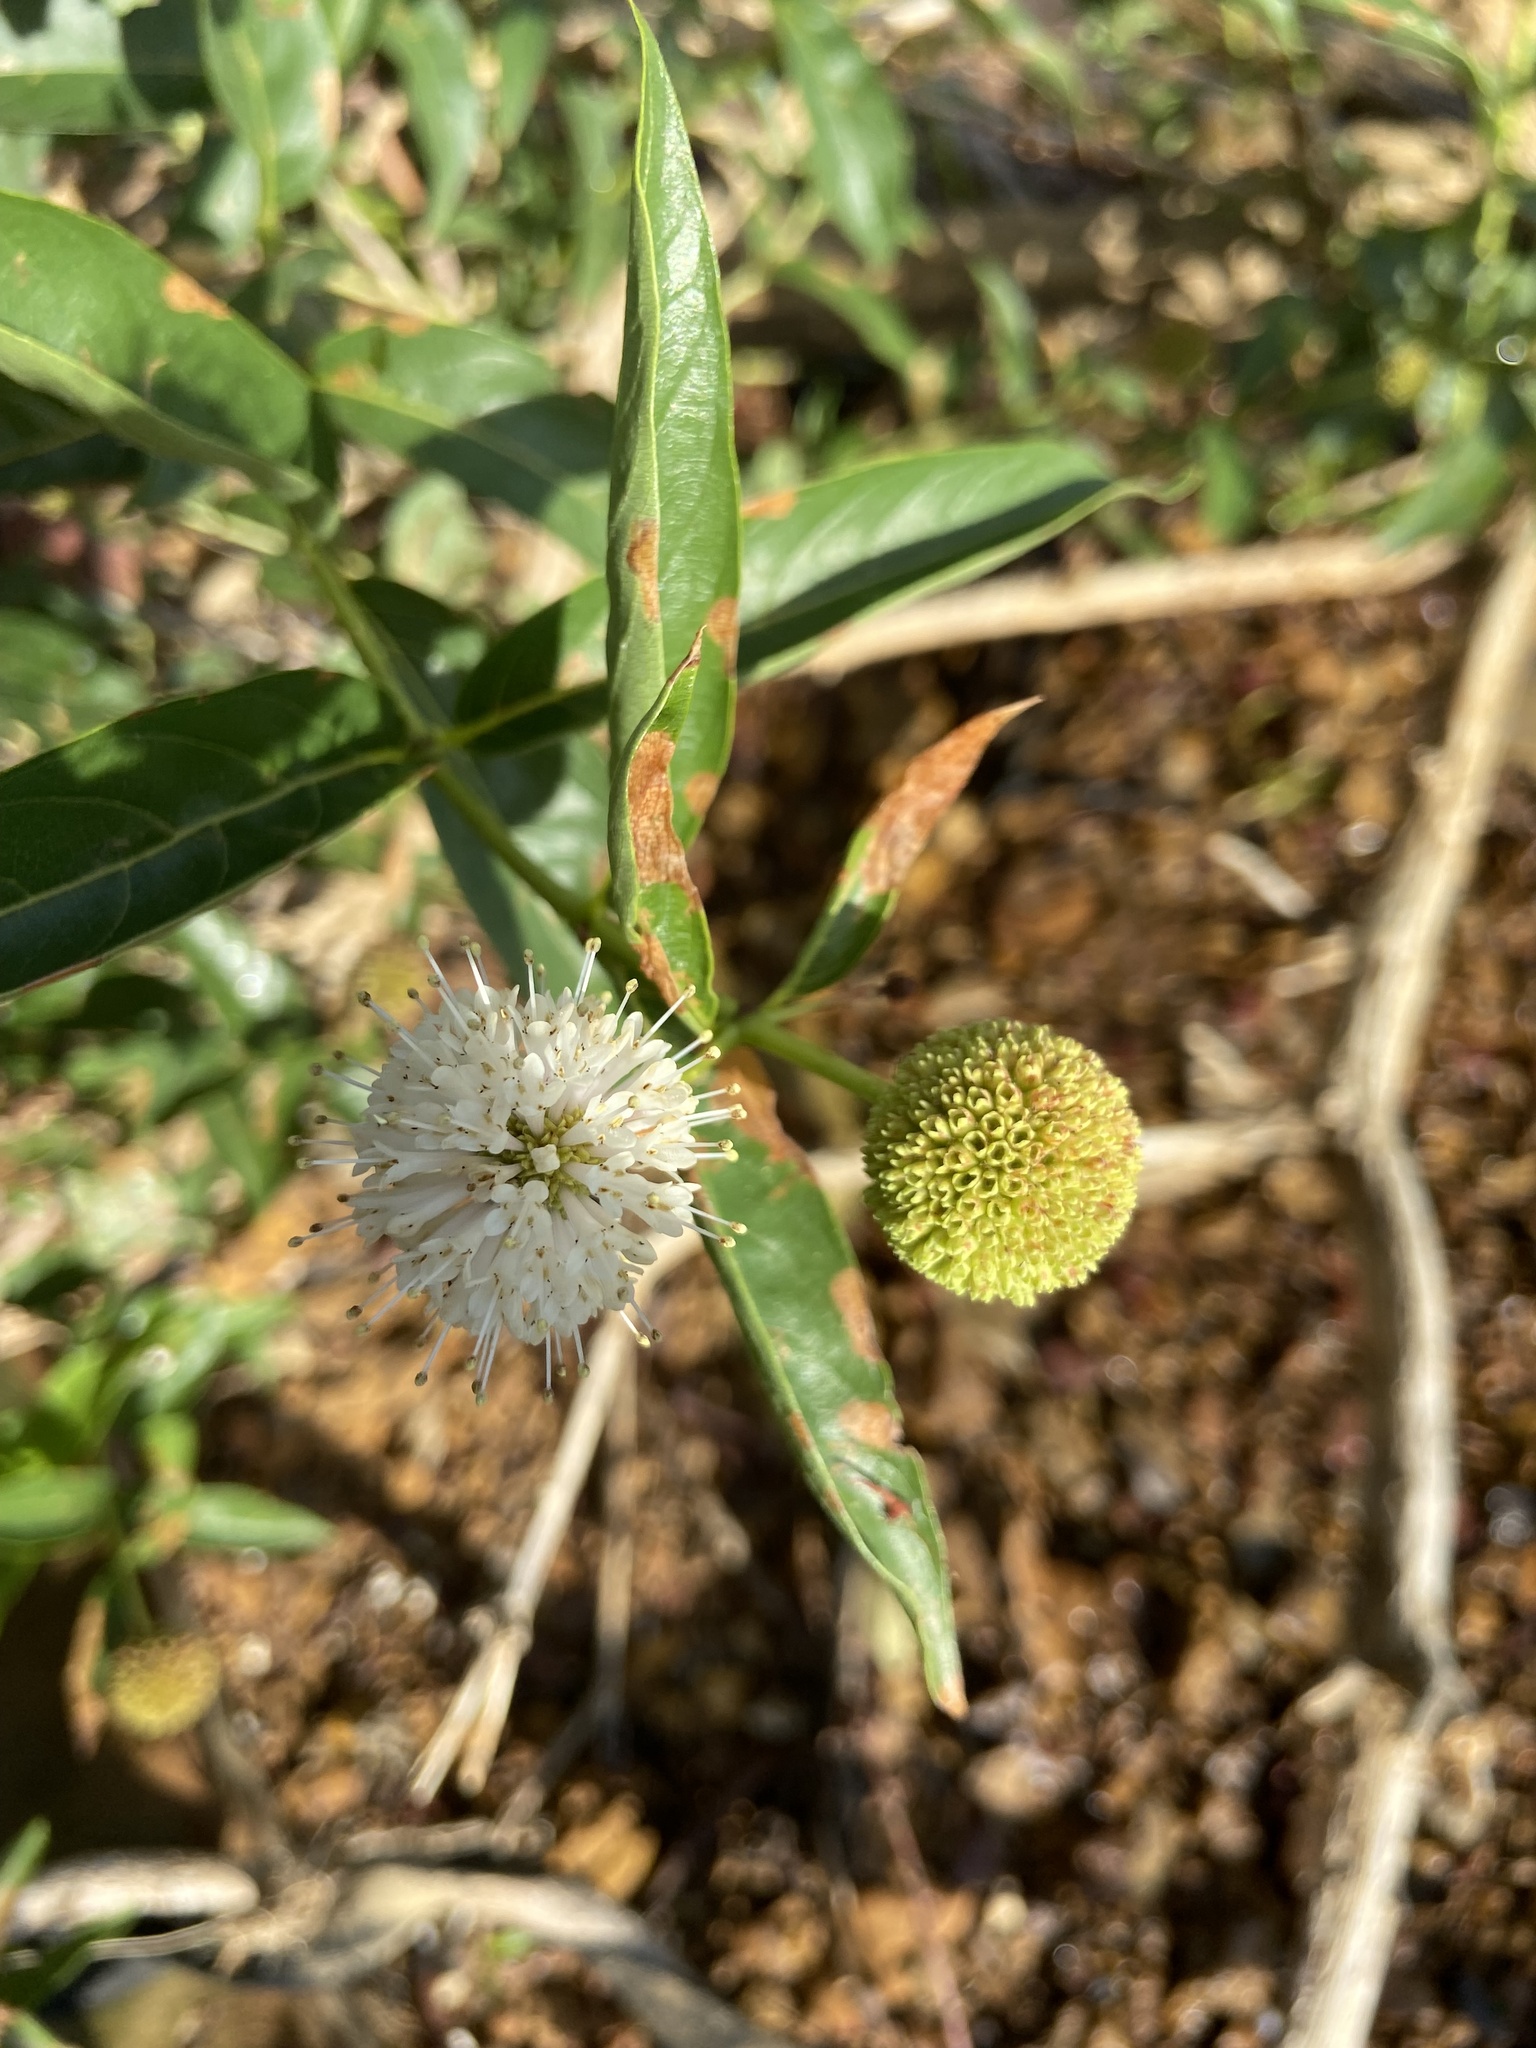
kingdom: Plantae
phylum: Tracheophyta
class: Magnoliopsida
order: Gentianales
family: Rubiaceae
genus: Cephalanthus
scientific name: Cephalanthus occidentalis
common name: Button-willow
